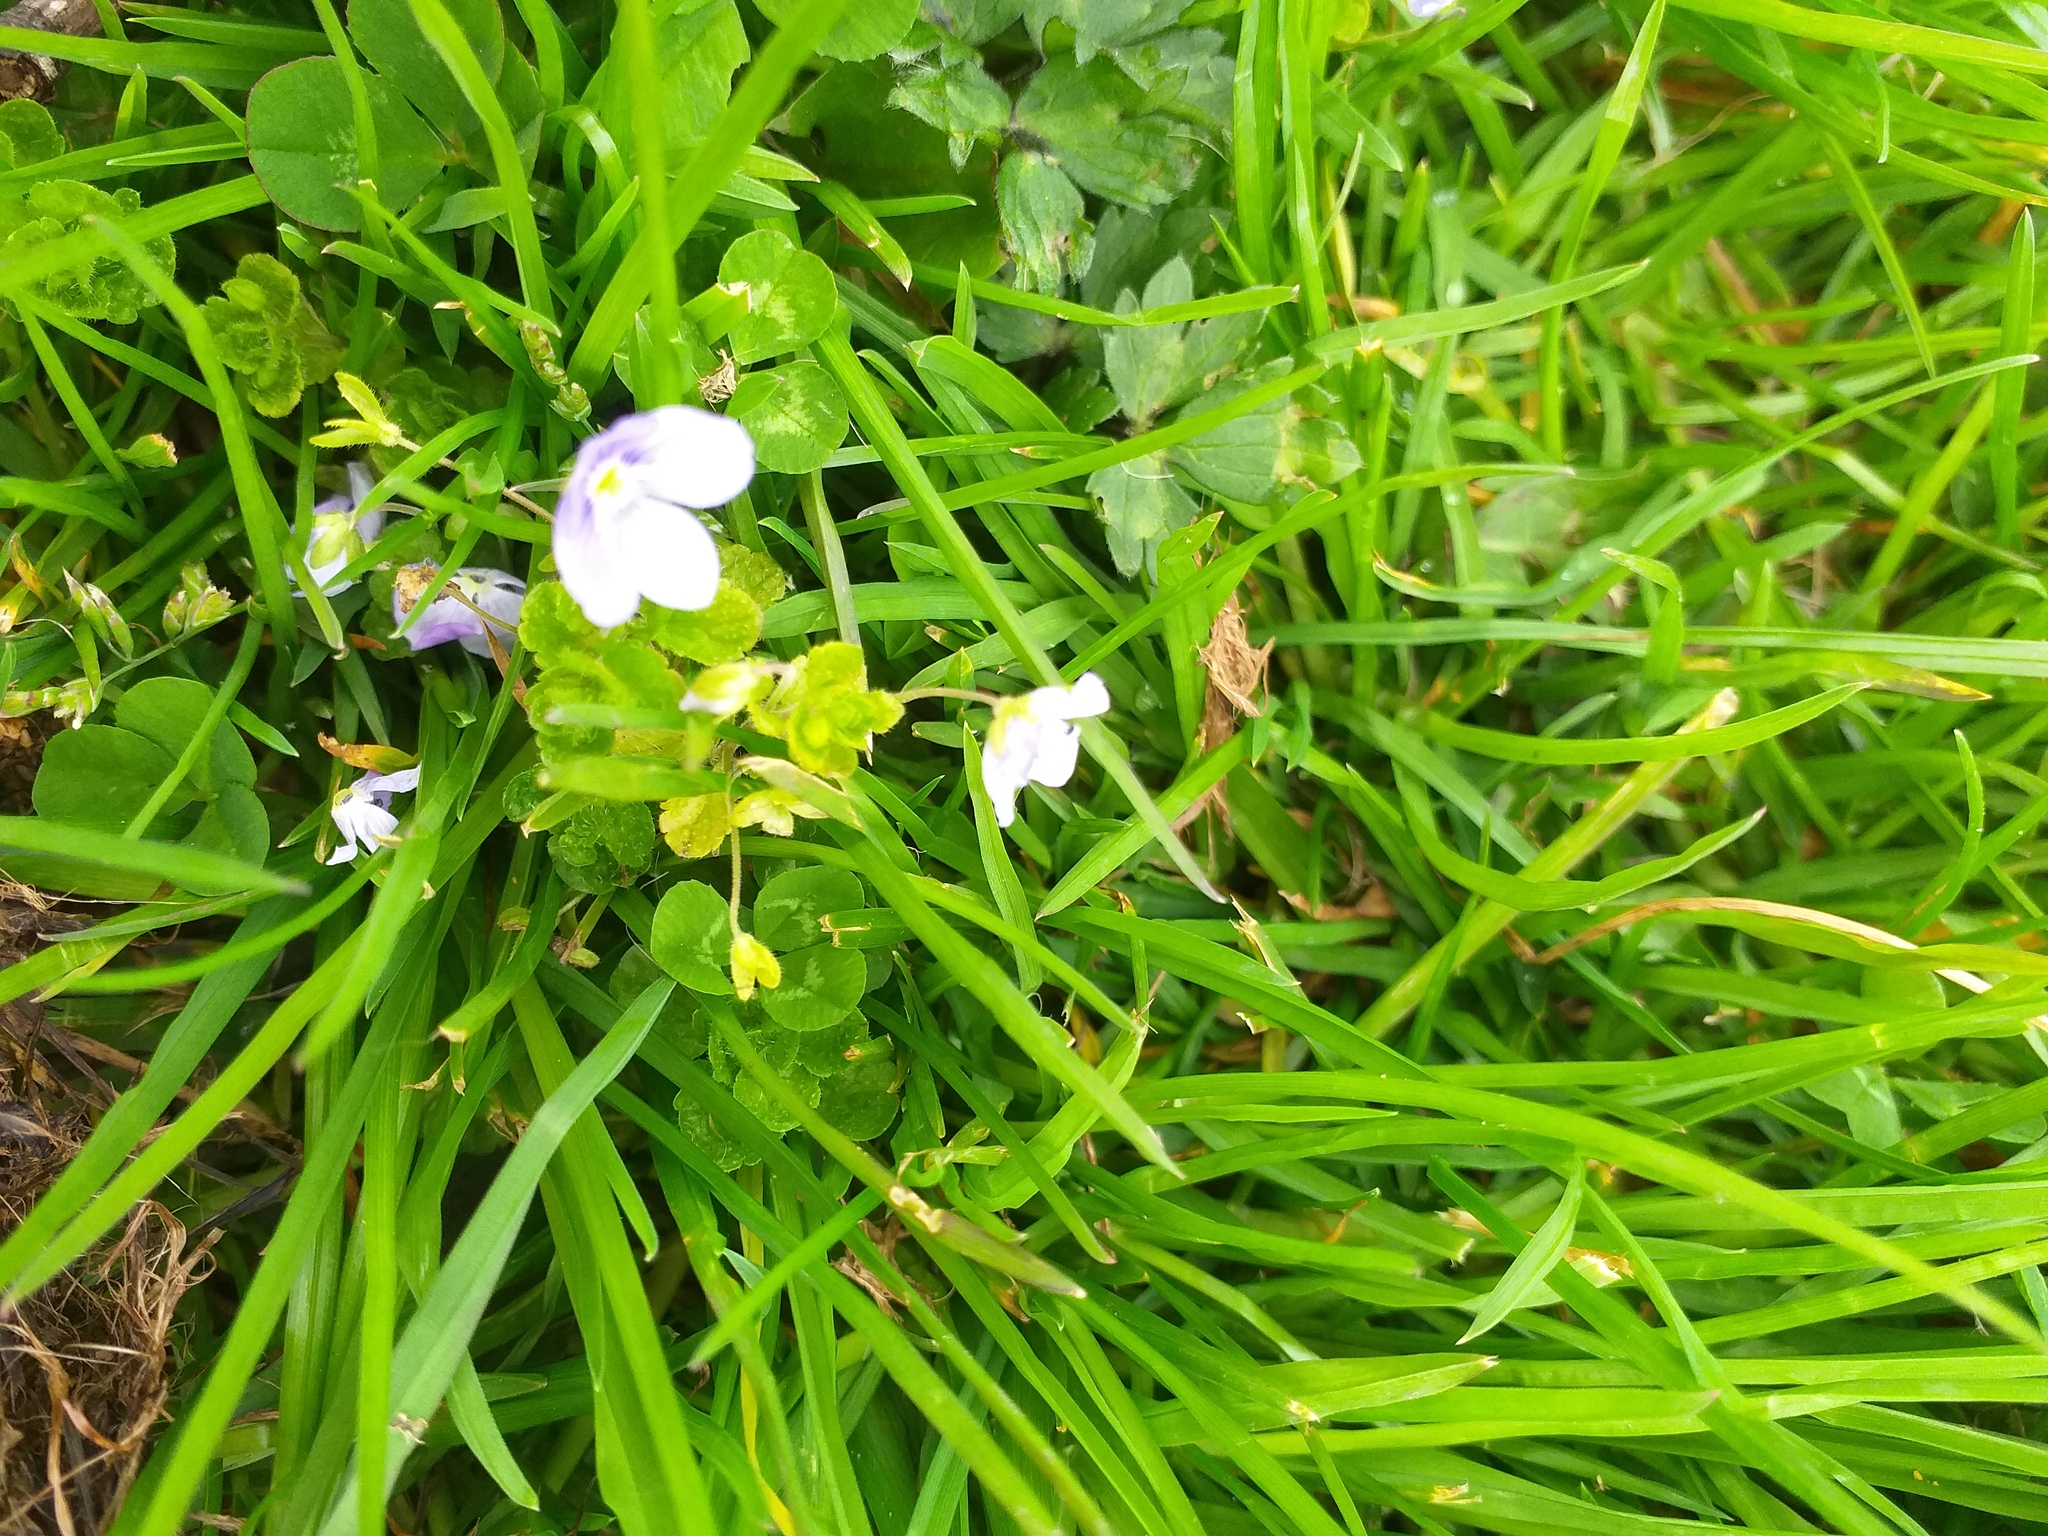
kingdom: Plantae
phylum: Tracheophyta
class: Magnoliopsida
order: Lamiales
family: Plantaginaceae
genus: Veronica
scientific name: Veronica filiformis
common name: Slender speedwell
